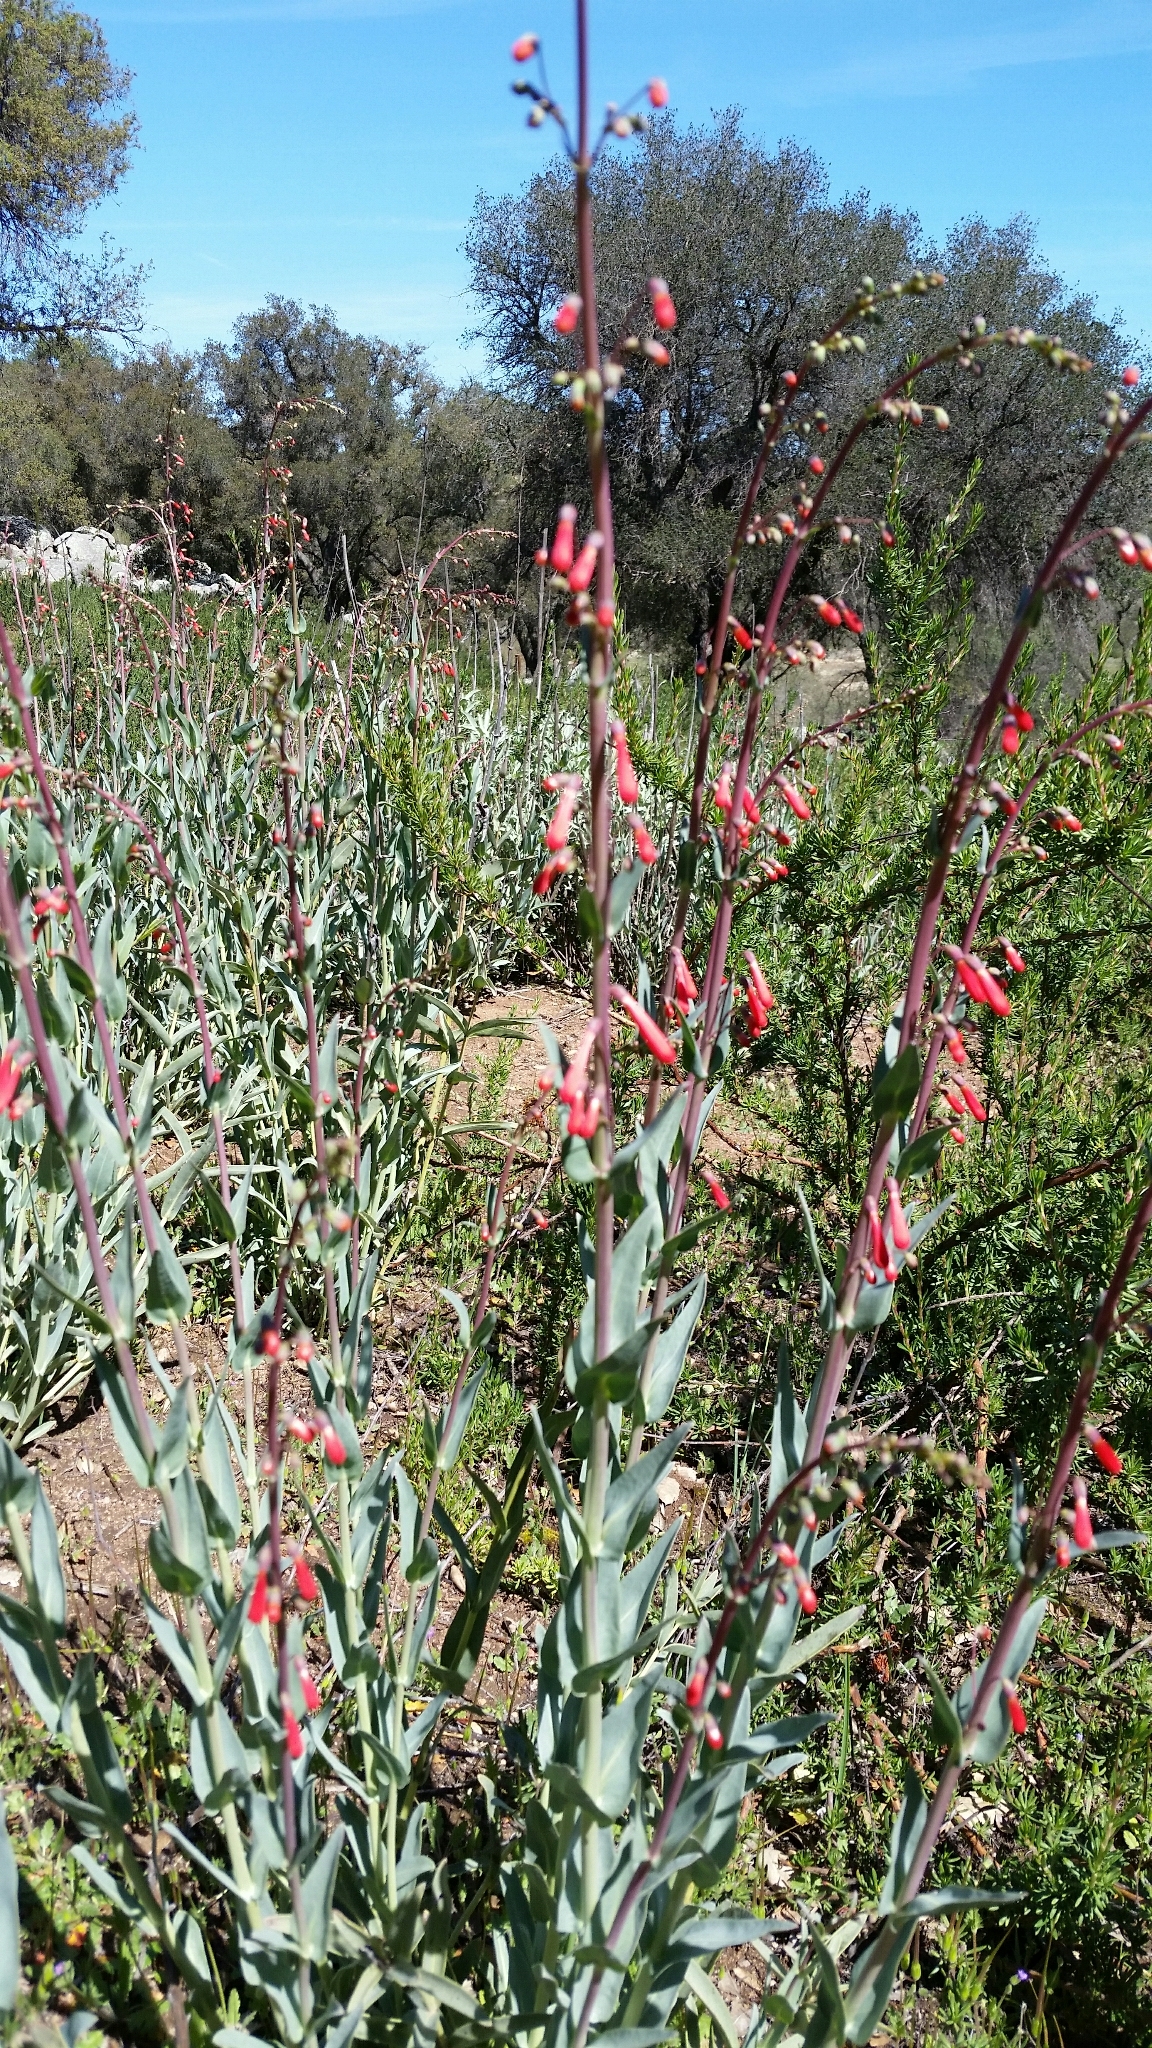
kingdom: Plantae
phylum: Tracheophyta
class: Magnoliopsida
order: Lamiales
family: Plantaginaceae
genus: Penstemon
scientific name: Penstemon centranthifolius
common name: Scarlet bugler
